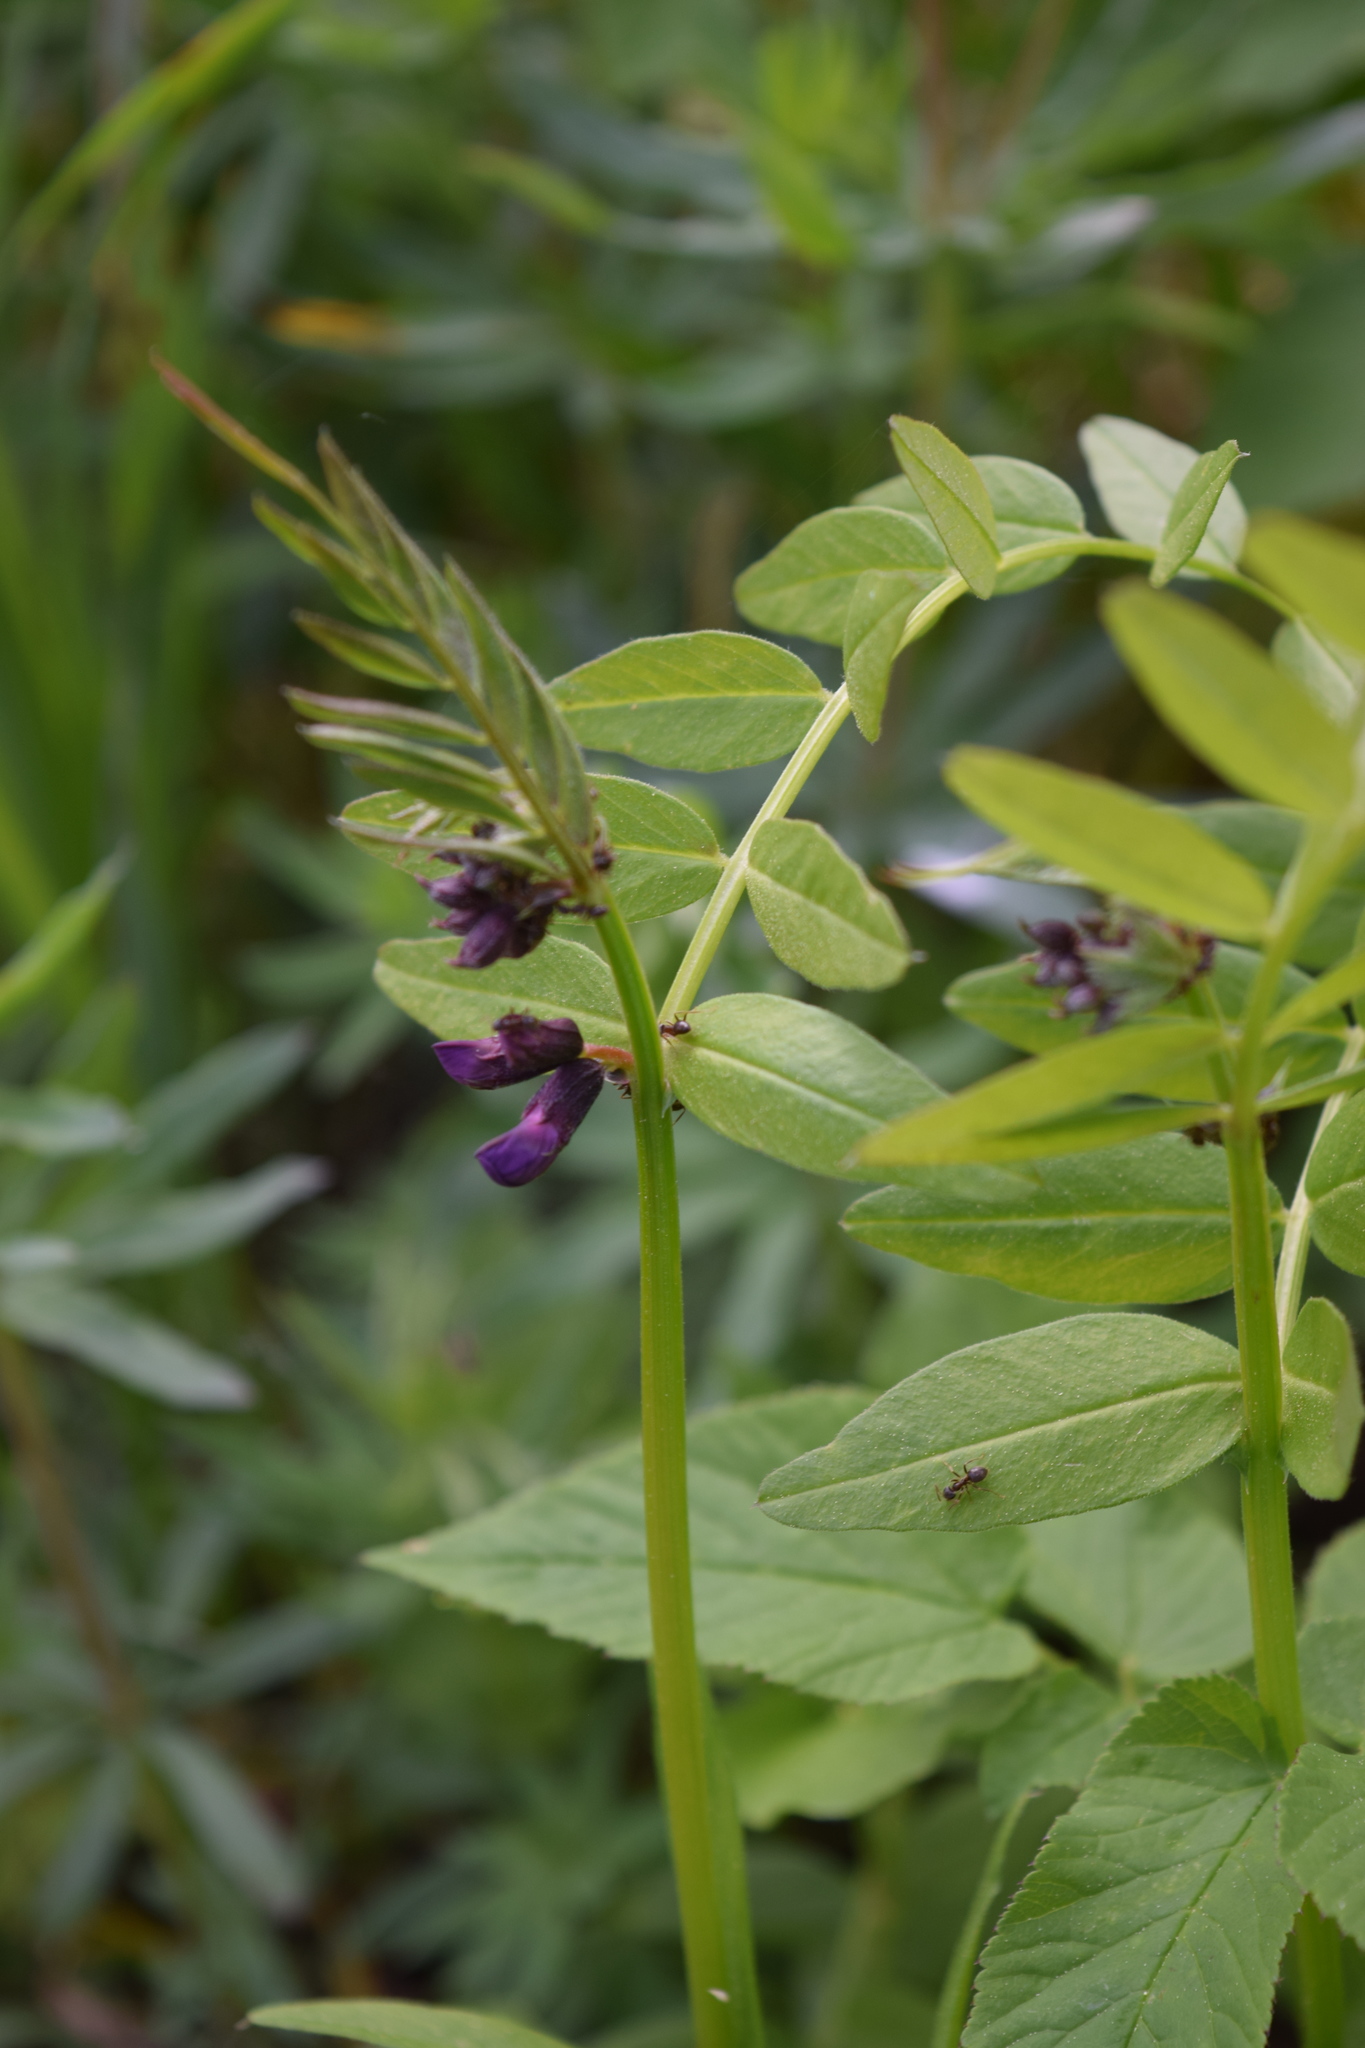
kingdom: Plantae
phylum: Tracheophyta
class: Magnoliopsida
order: Fabales
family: Fabaceae
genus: Vicia
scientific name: Vicia sepium
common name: Bush vetch
